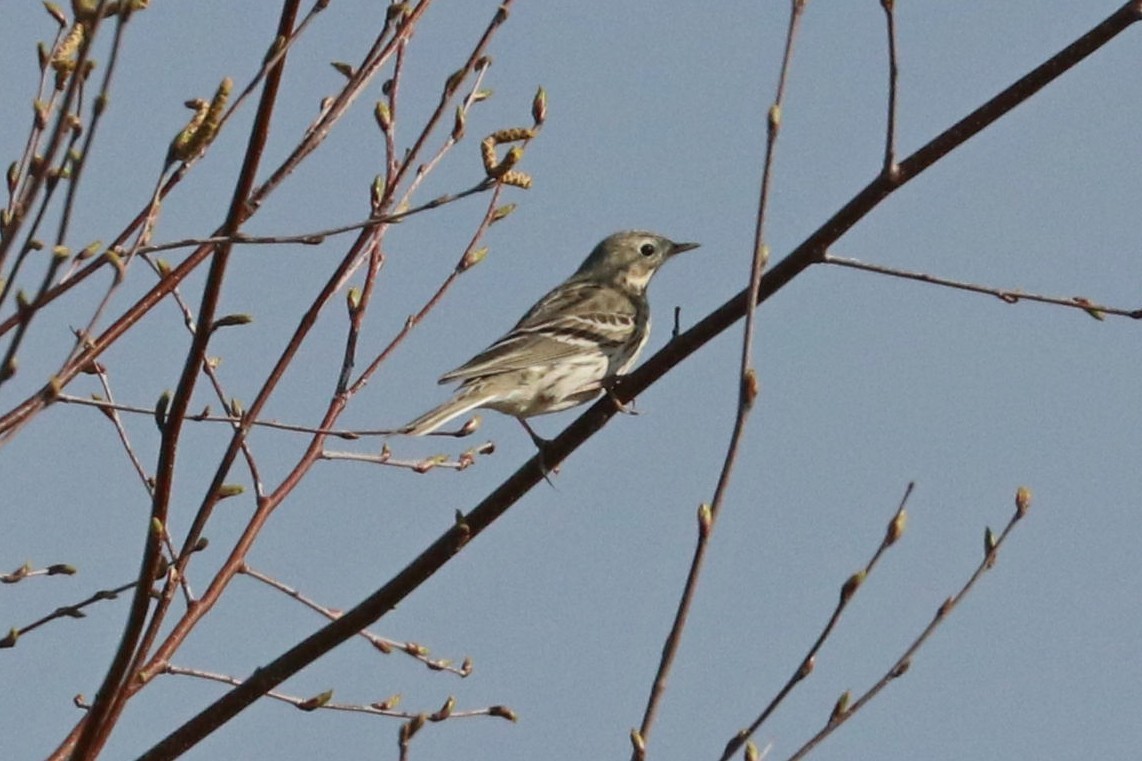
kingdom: Animalia
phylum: Chordata
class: Aves
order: Passeriformes
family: Motacillidae
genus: Anthus
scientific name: Anthus pratensis
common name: Meadow pipit
